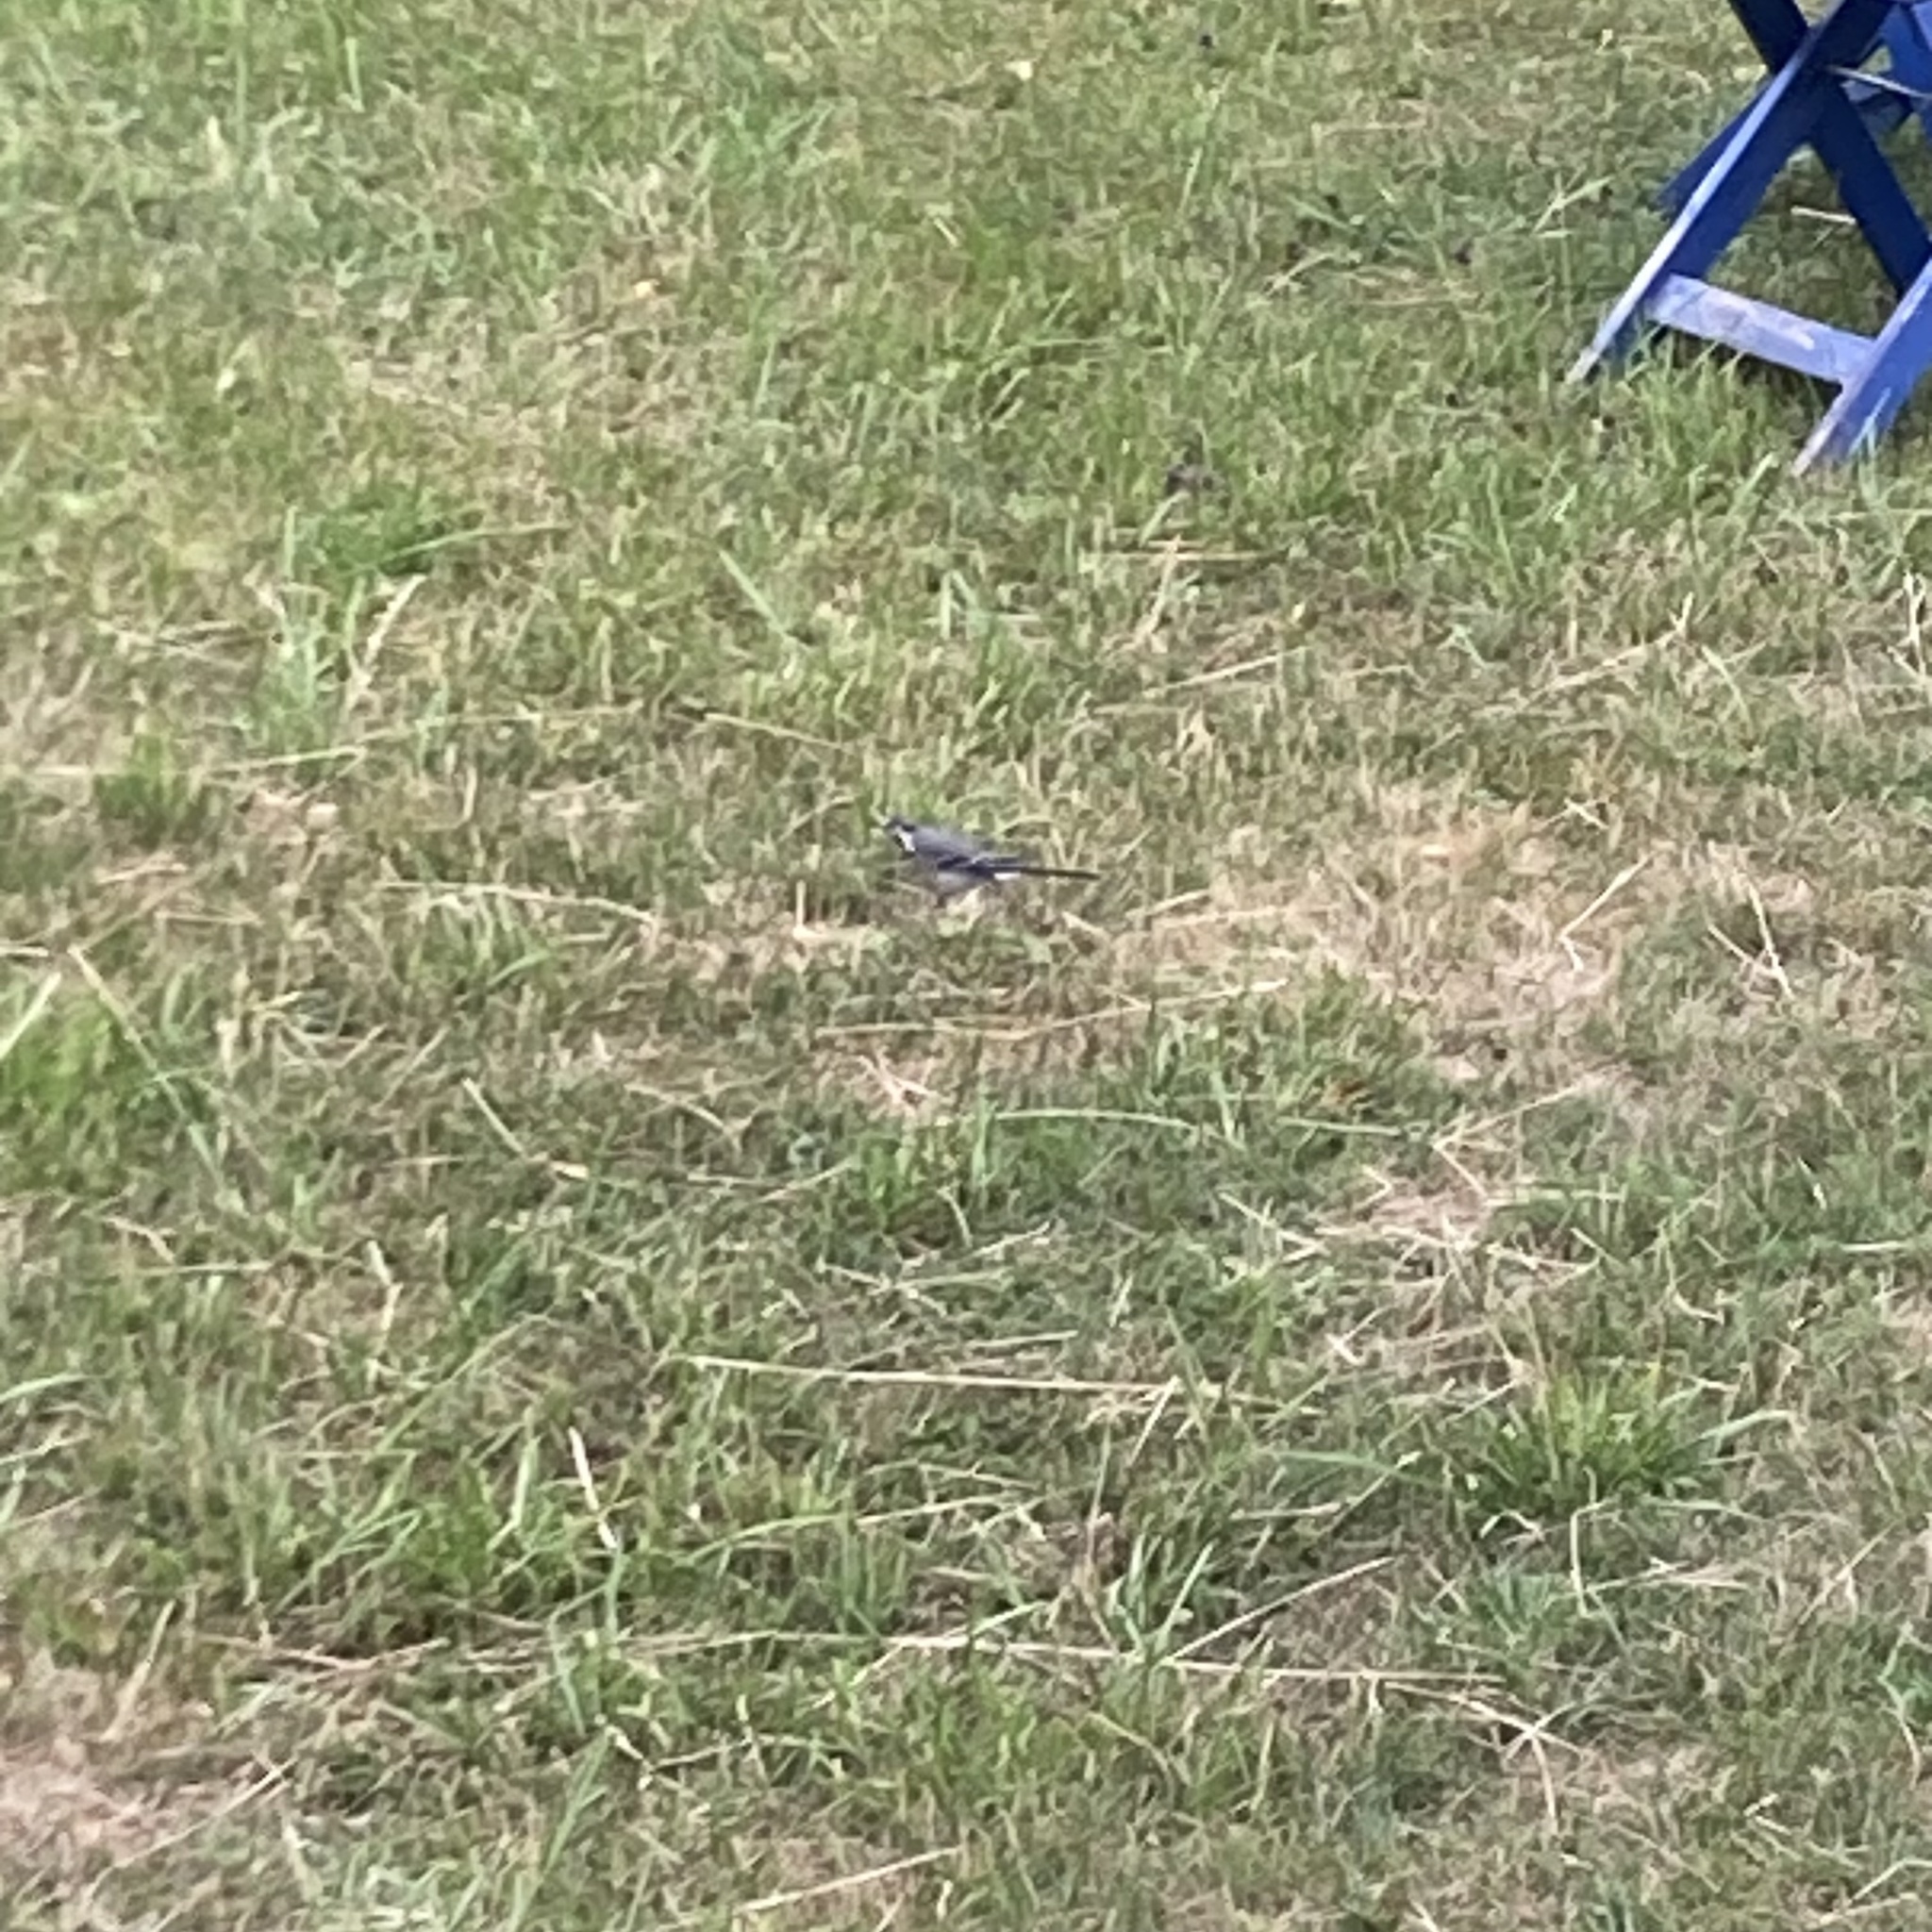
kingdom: Animalia
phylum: Chordata
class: Aves
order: Passeriformes
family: Motacillidae
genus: Motacilla
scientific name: Motacilla alba
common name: White wagtail
